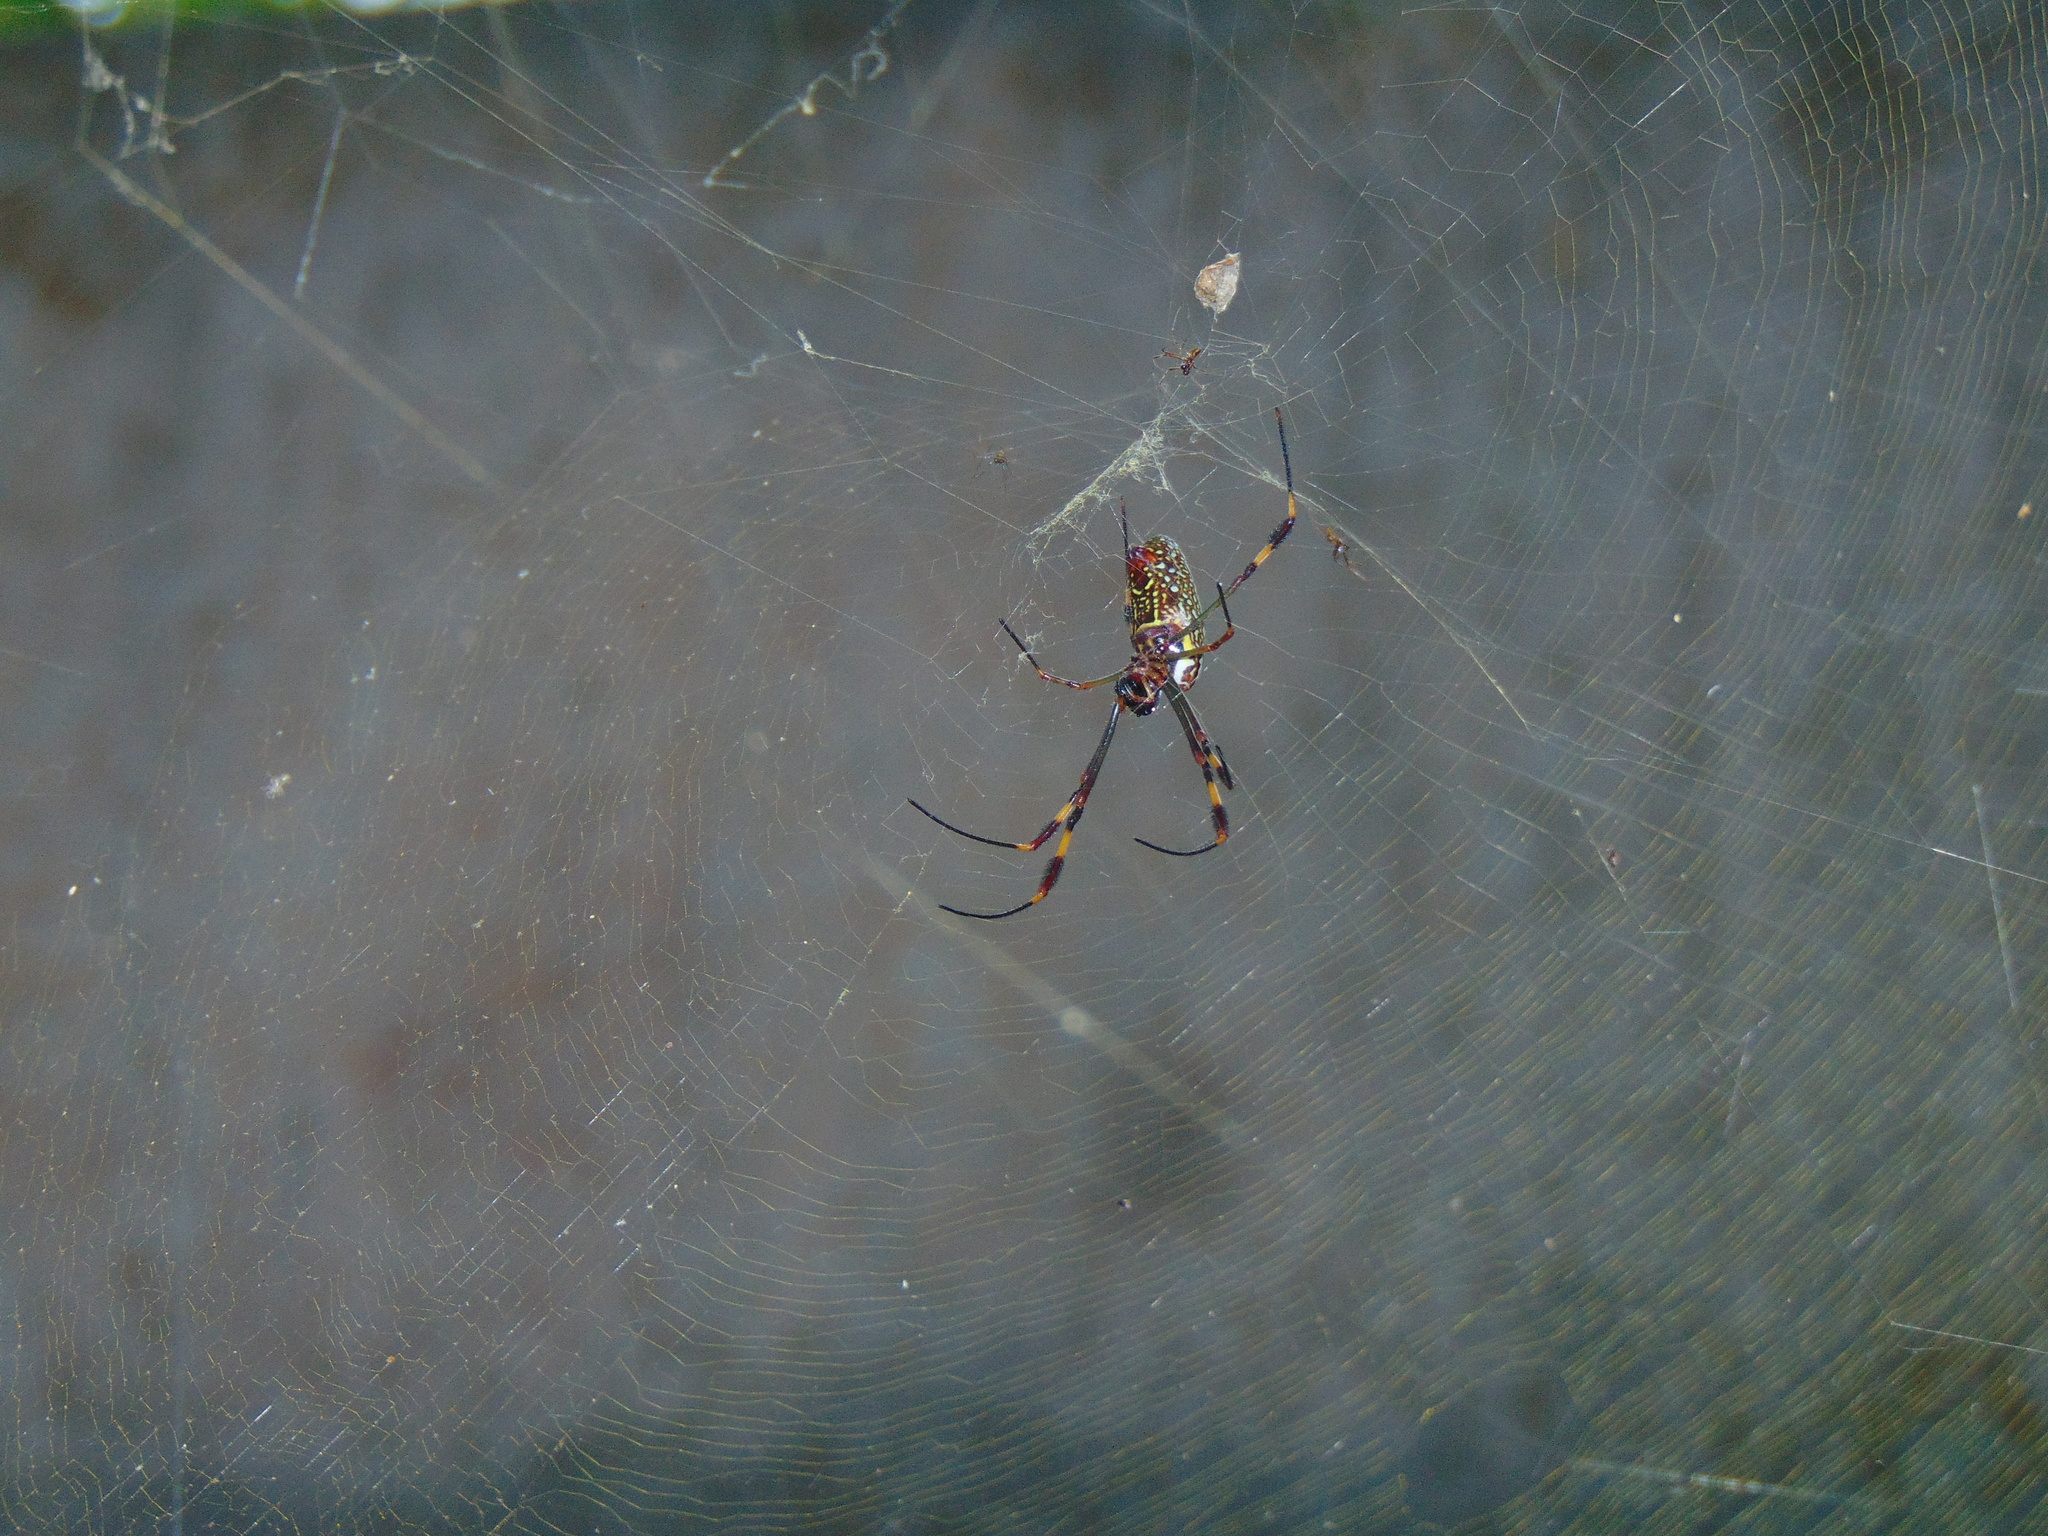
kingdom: Animalia
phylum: Arthropoda
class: Arachnida
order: Araneae
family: Araneidae
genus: Trichonephila
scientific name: Trichonephila clavipes
